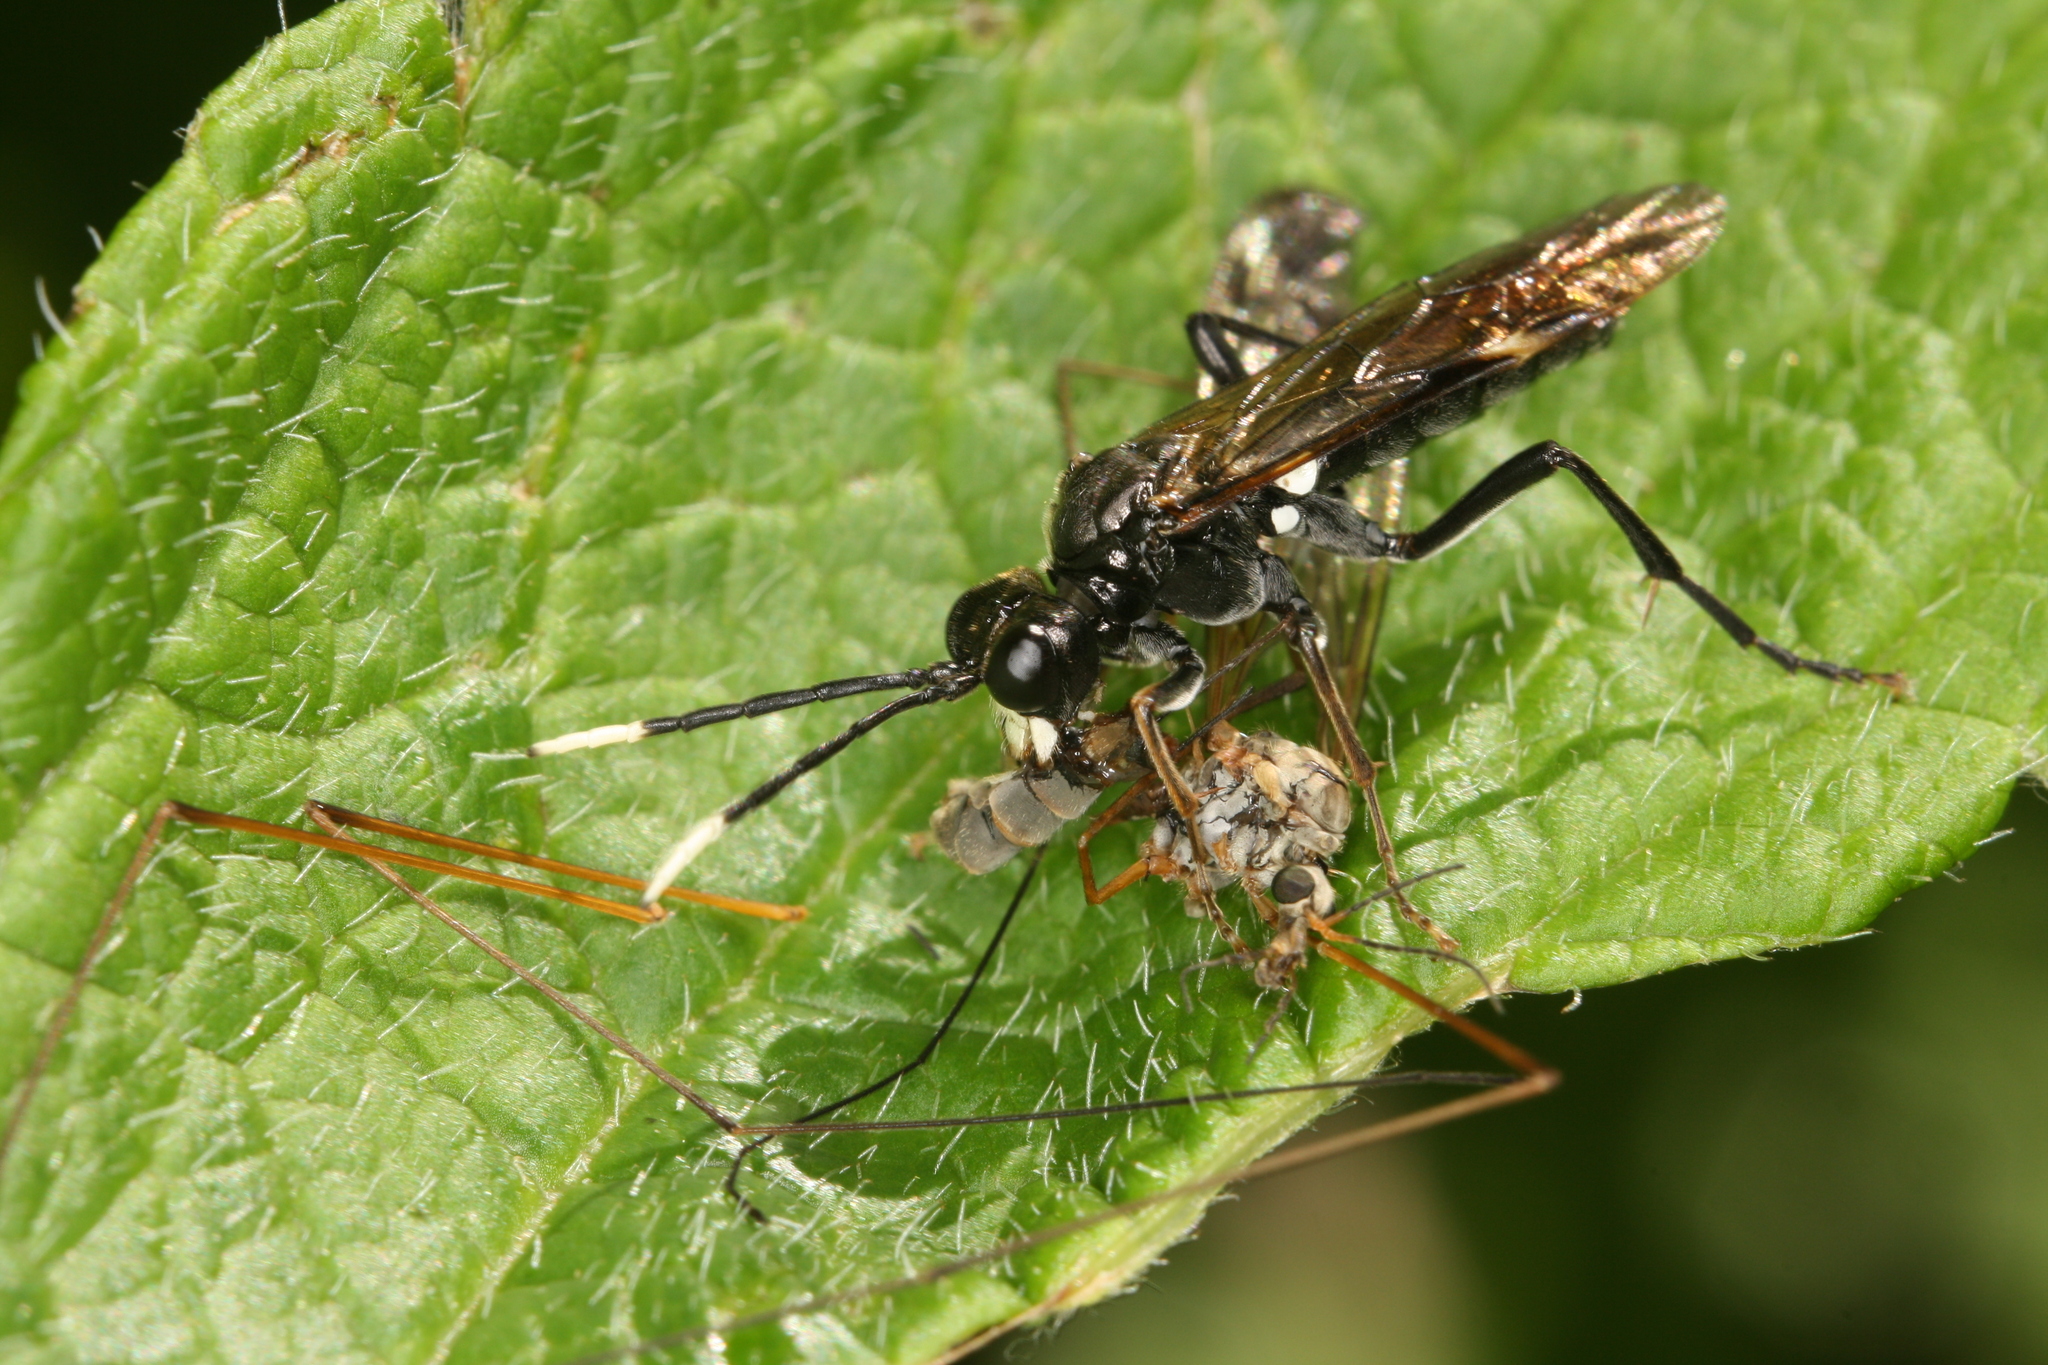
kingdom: Animalia
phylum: Arthropoda
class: Insecta
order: Hymenoptera
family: Tenthredinidae
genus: Tenthredo
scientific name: Tenthredo livida
